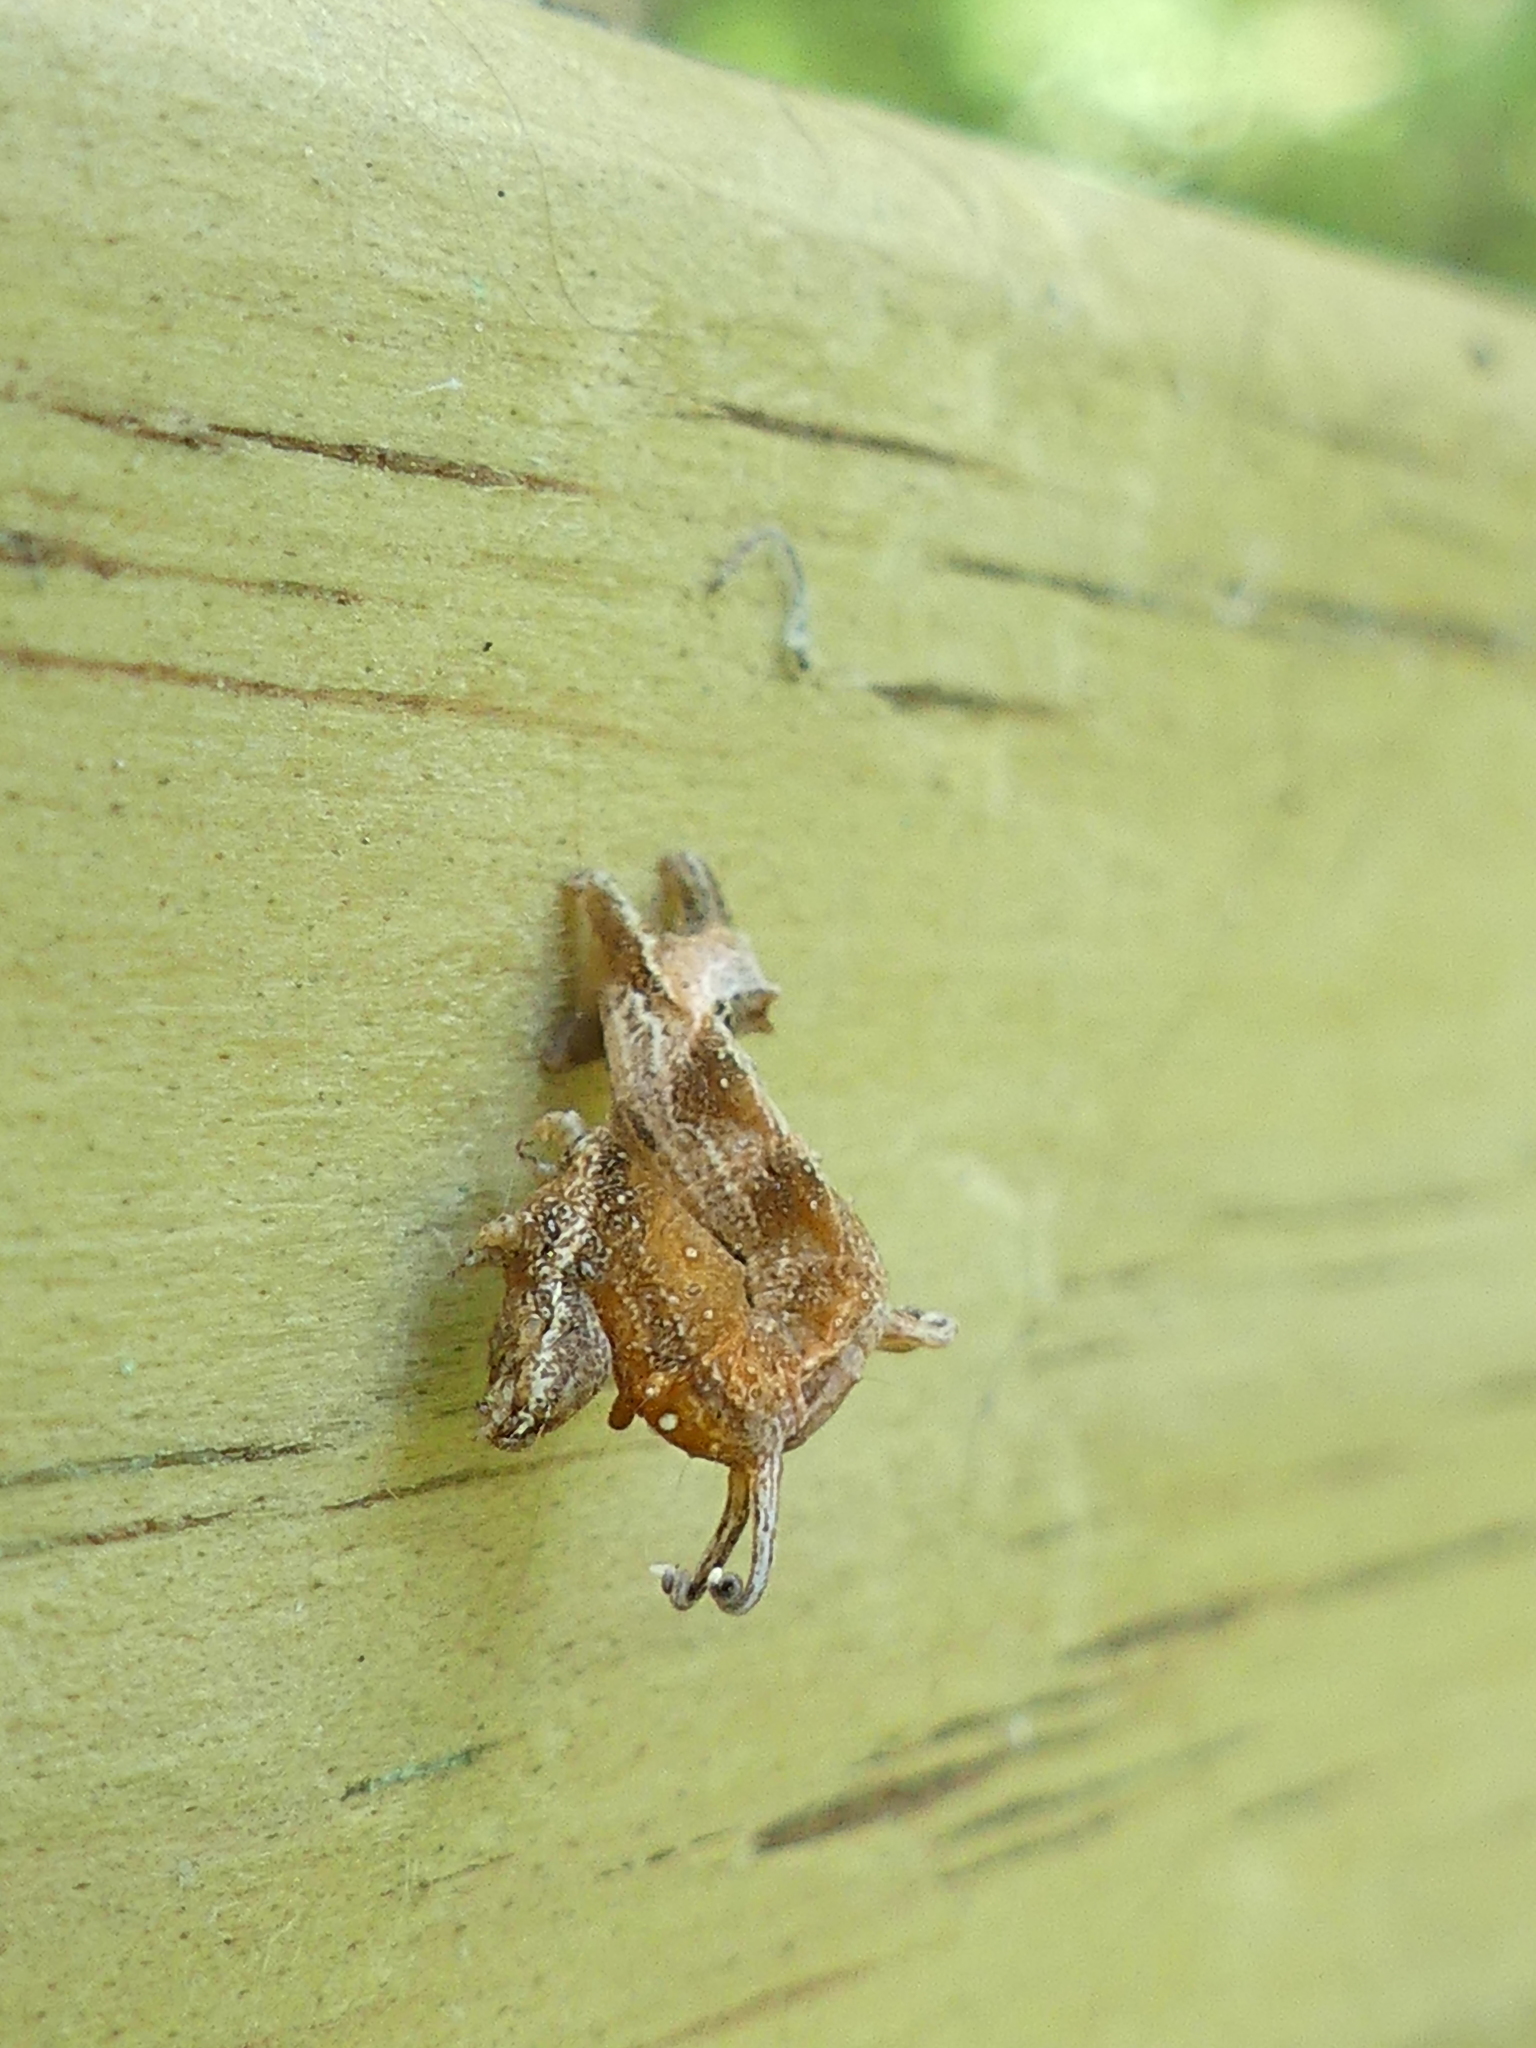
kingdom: Animalia
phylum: Arthropoda
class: Insecta
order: Lepidoptera
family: Geometridae
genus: Nematocampa
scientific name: Nematocampa resistaria
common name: Horned spanworm moth
